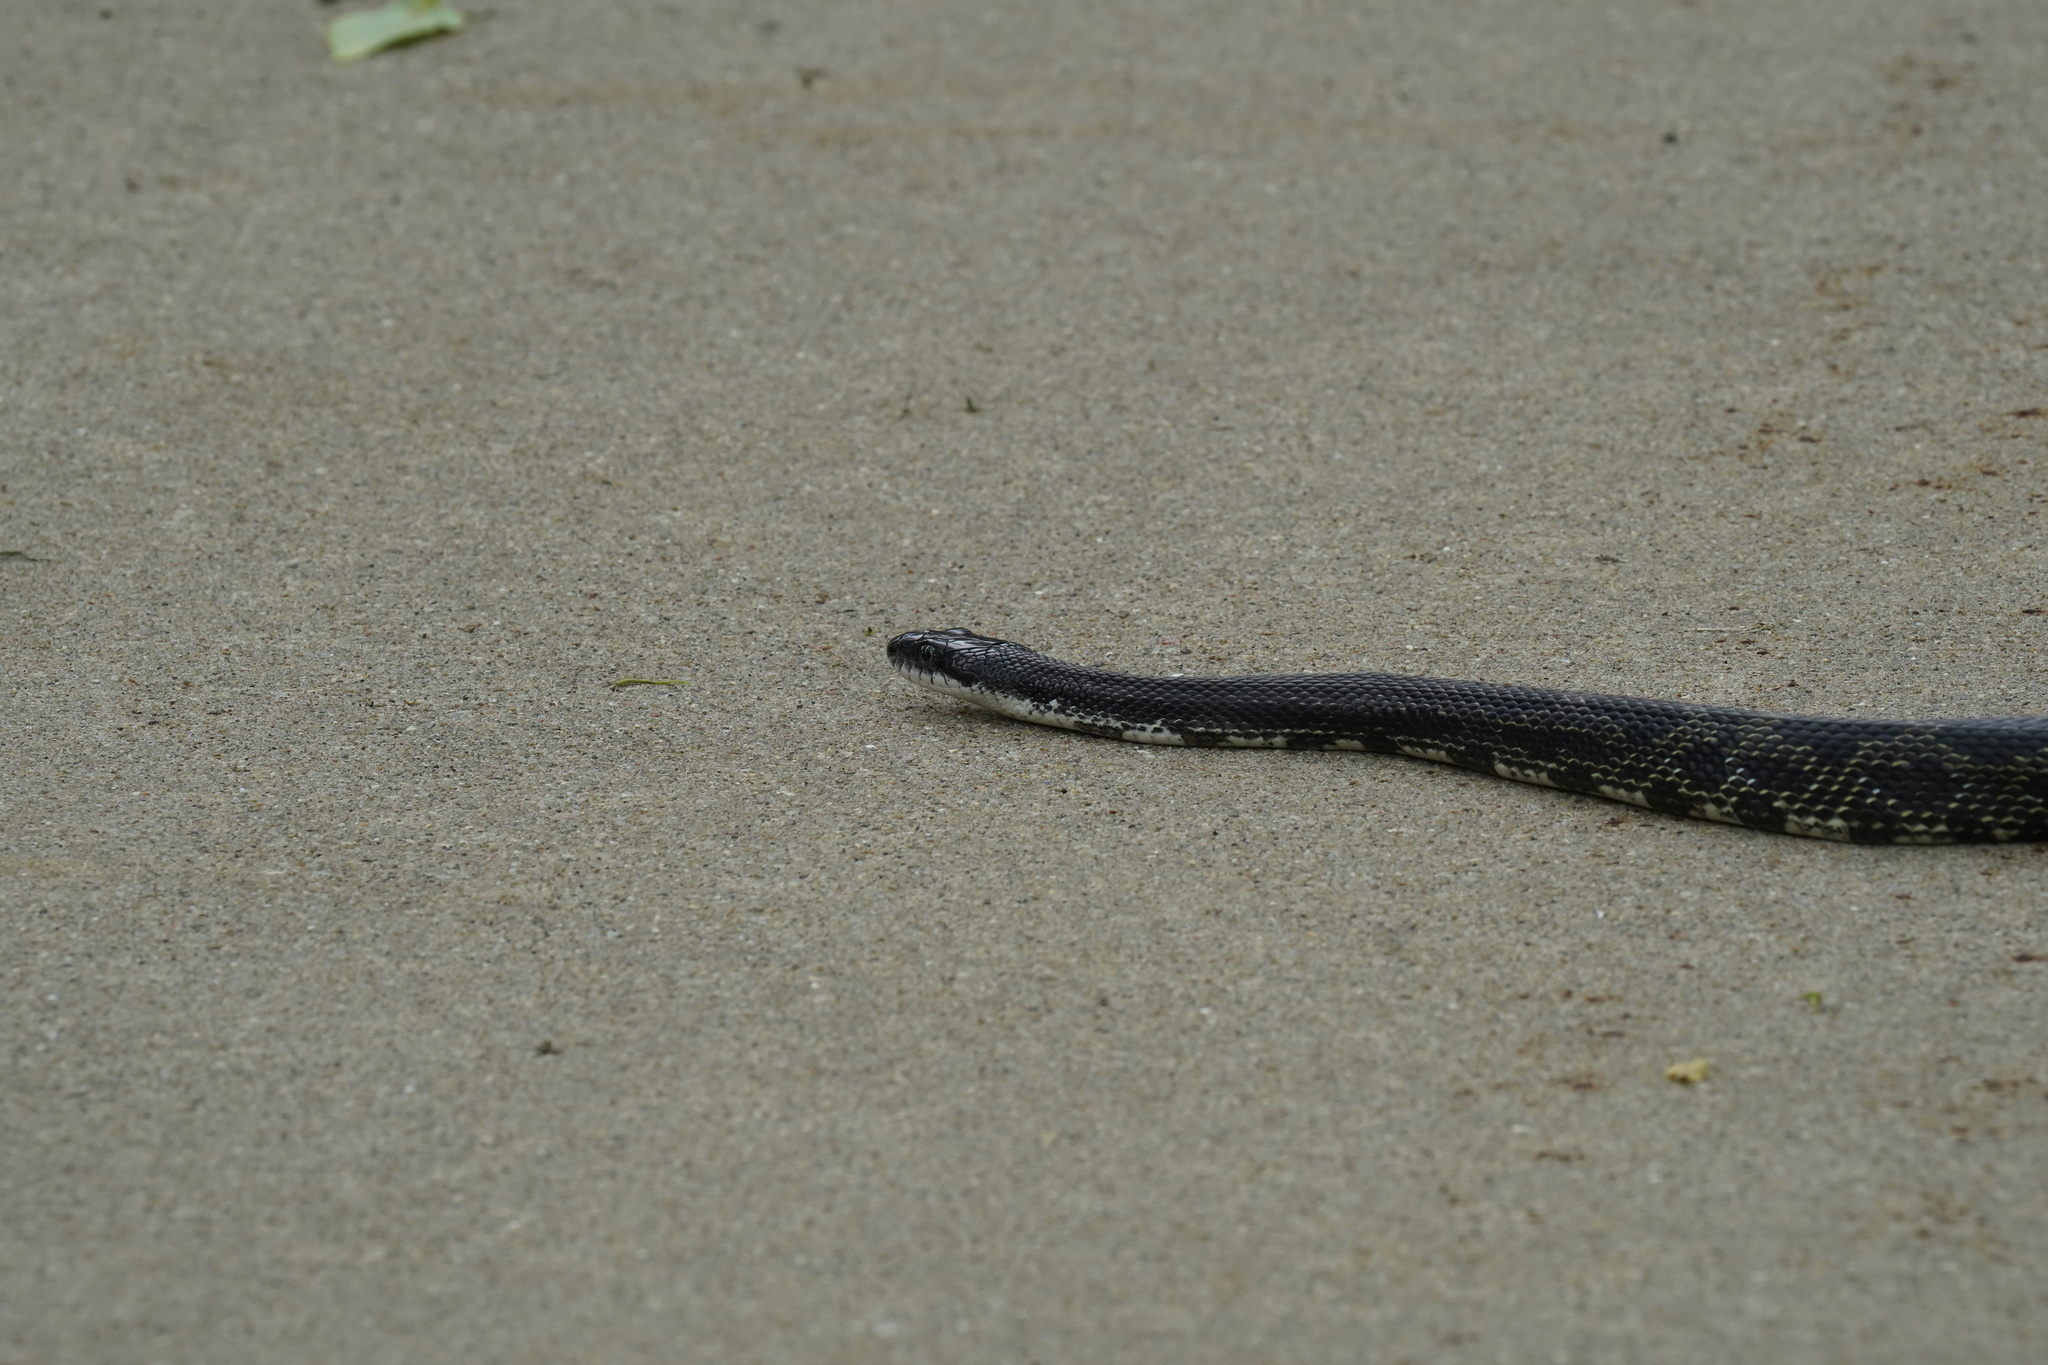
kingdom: Animalia
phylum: Chordata
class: Squamata
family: Colubridae
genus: Pantherophis
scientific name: Pantherophis spiloides
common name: Gray rat snake
